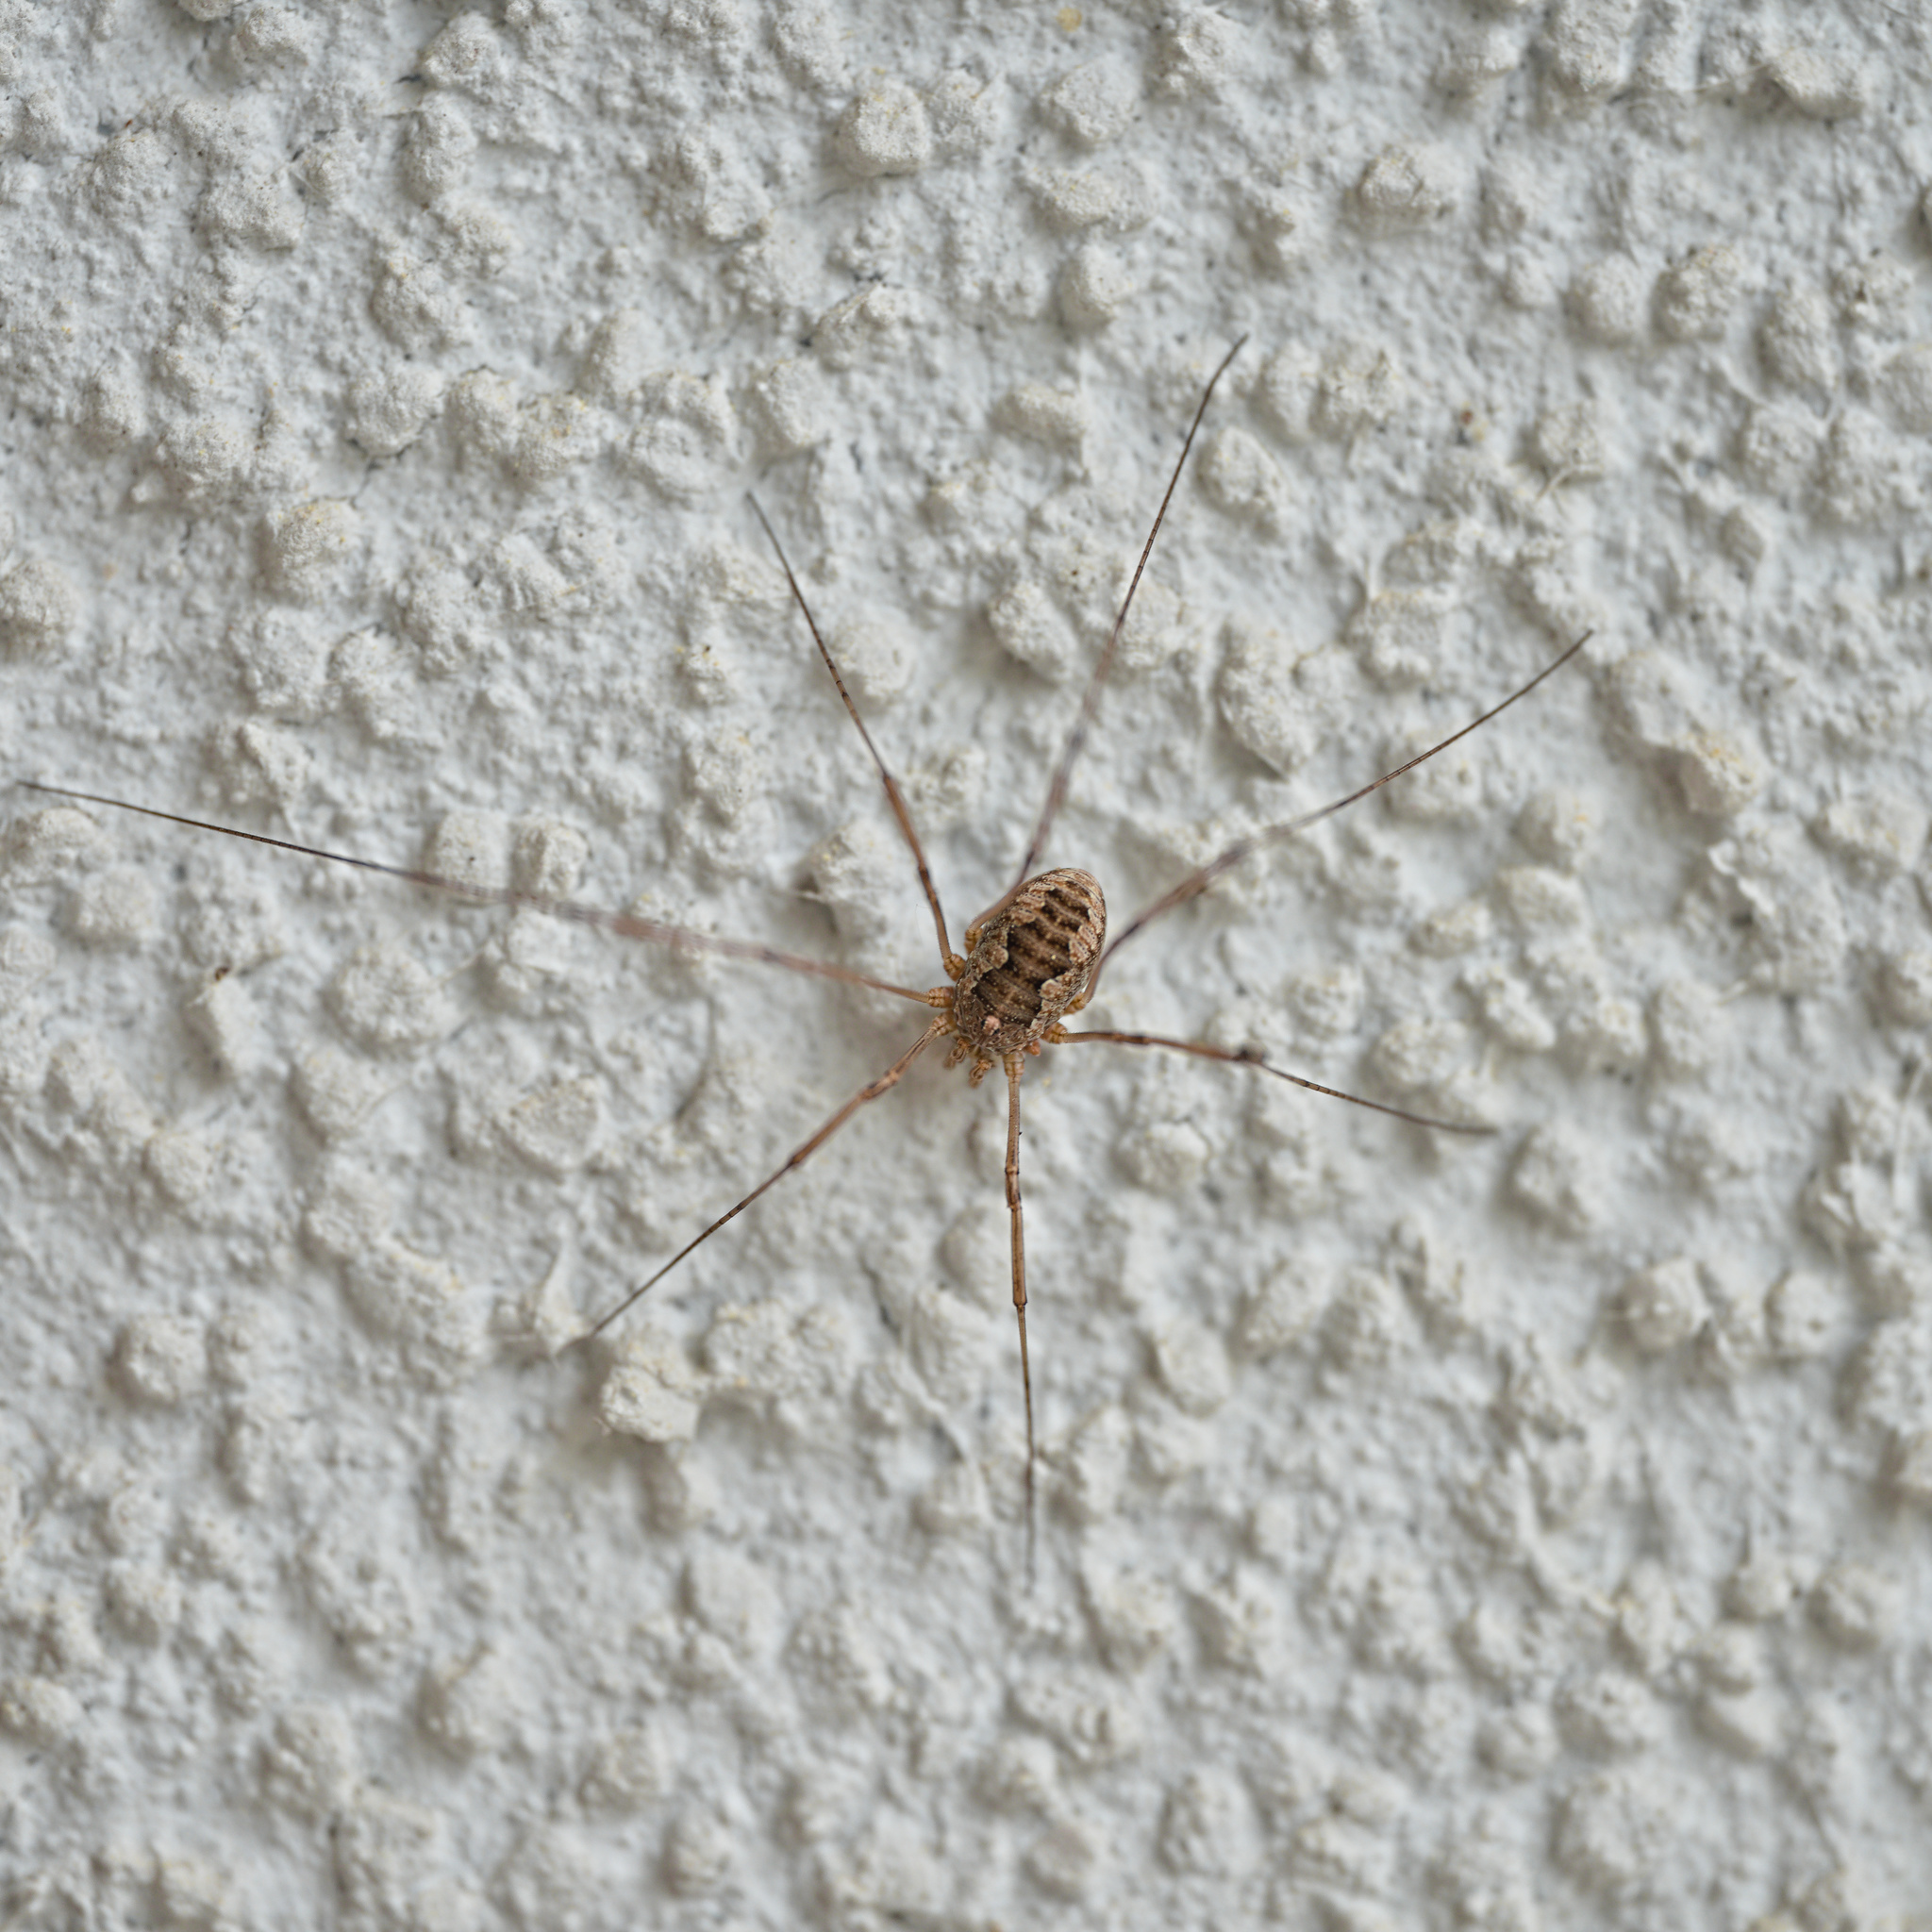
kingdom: Animalia
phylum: Arthropoda
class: Arachnida
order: Opiliones
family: Phalangiidae
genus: Phalangium
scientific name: Phalangium opilio
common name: Daddy longleg
